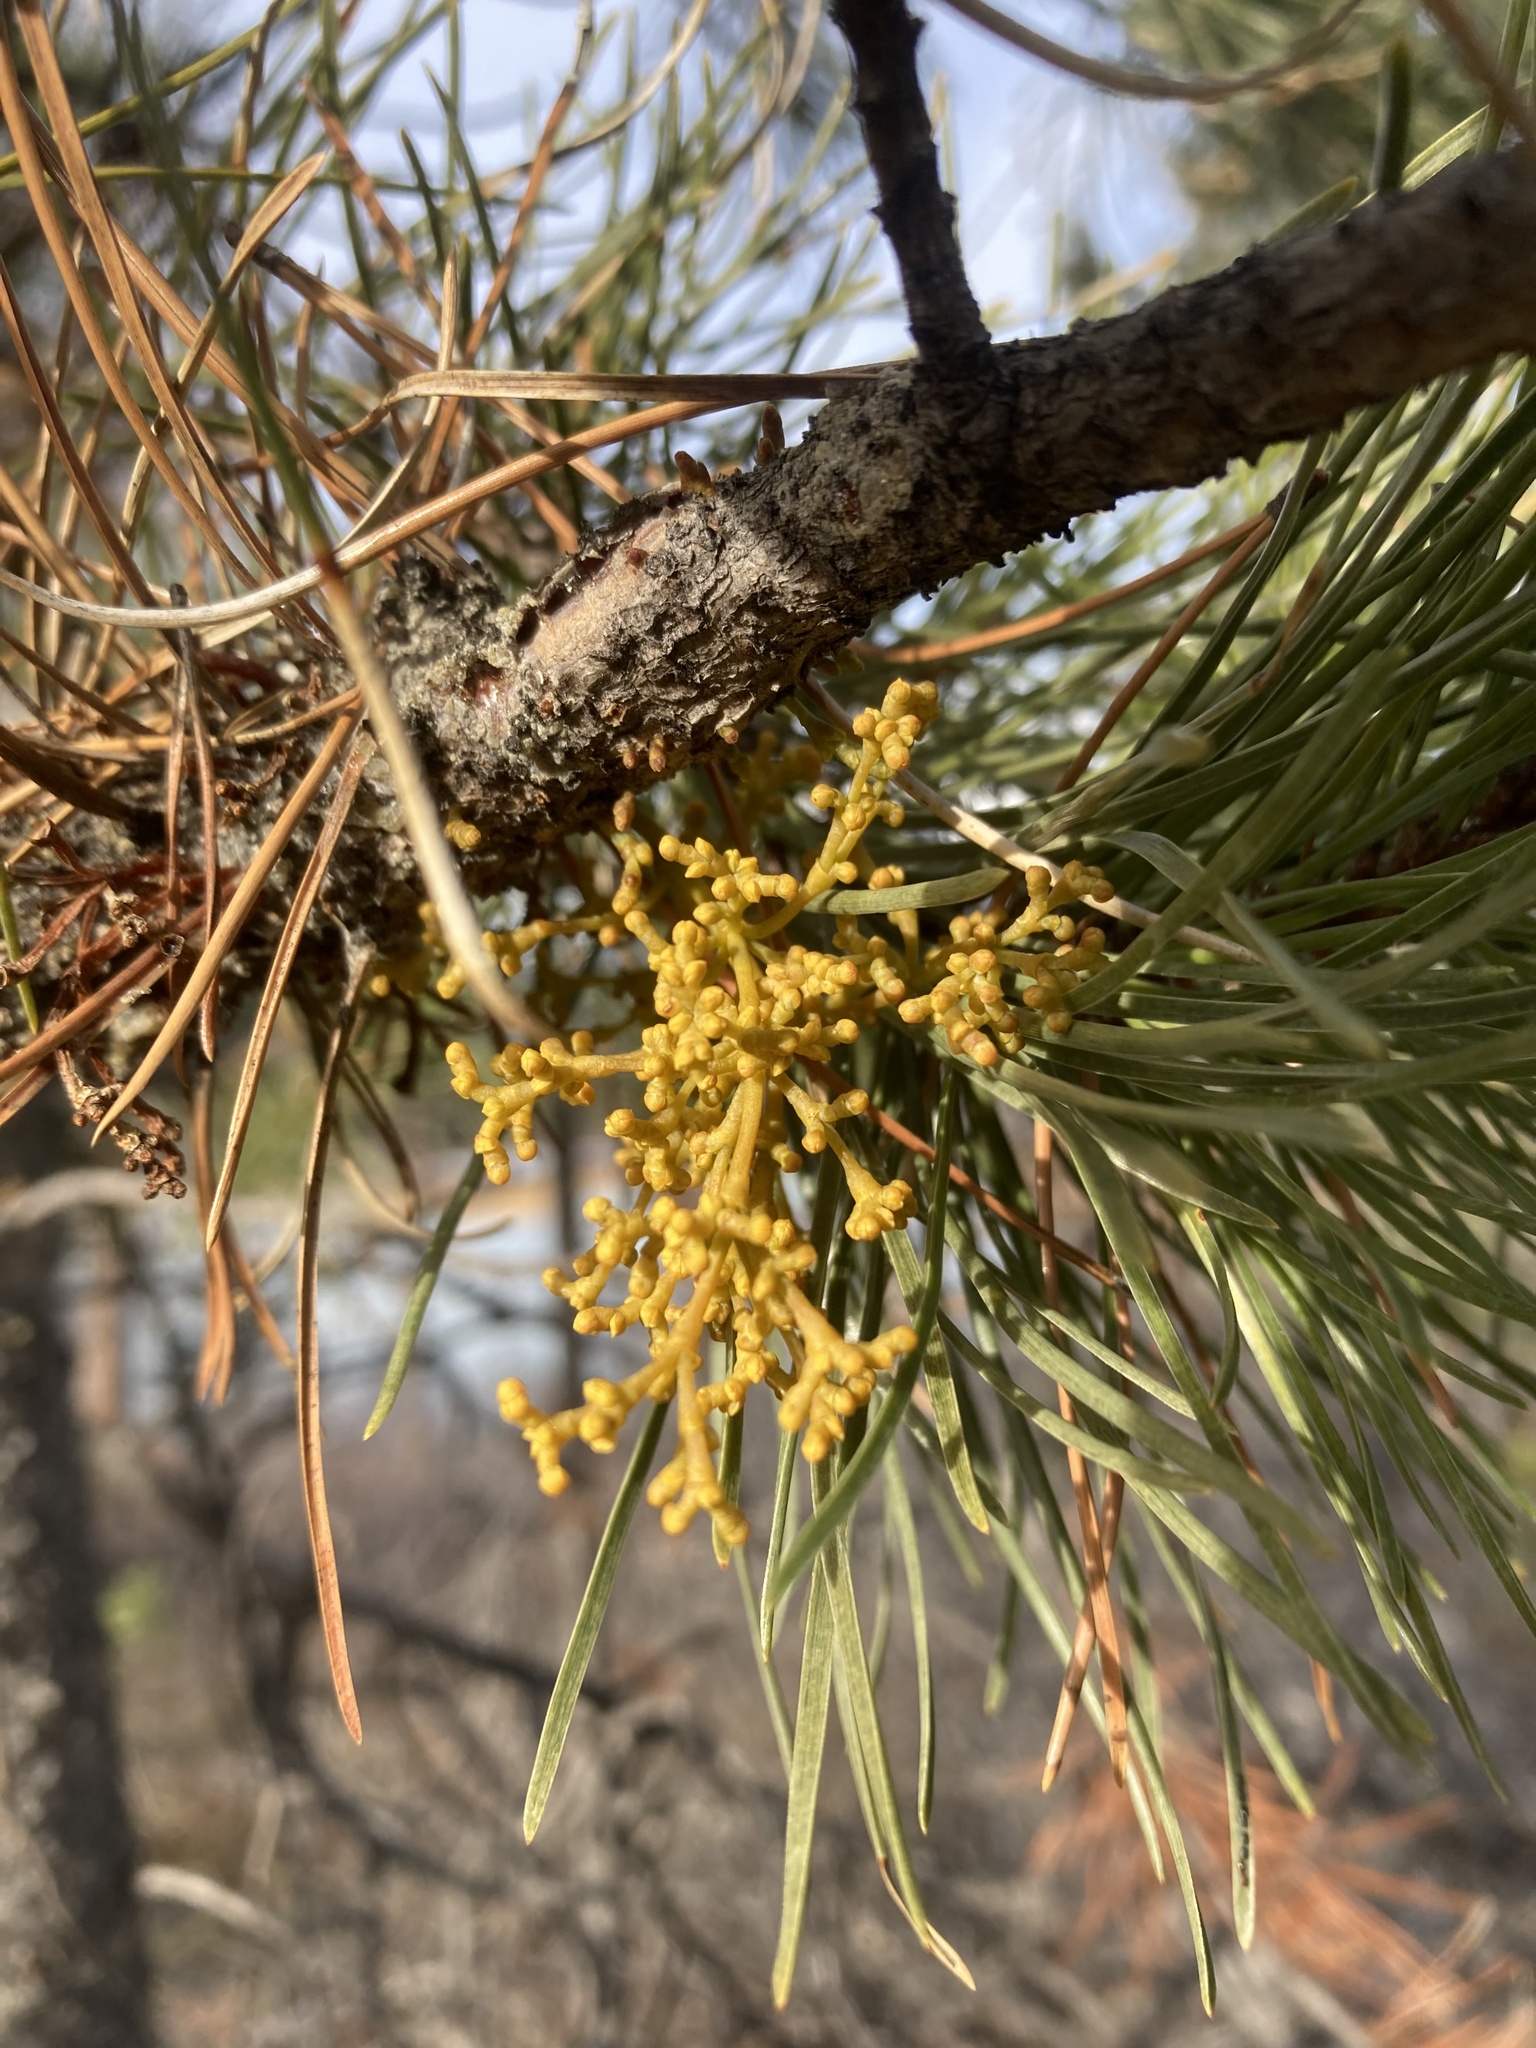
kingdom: Plantae
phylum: Tracheophyta
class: Magnoliopsida
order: Santalales
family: Viscaceae
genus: Arceuthobium
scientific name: Arceuthobium americanum
